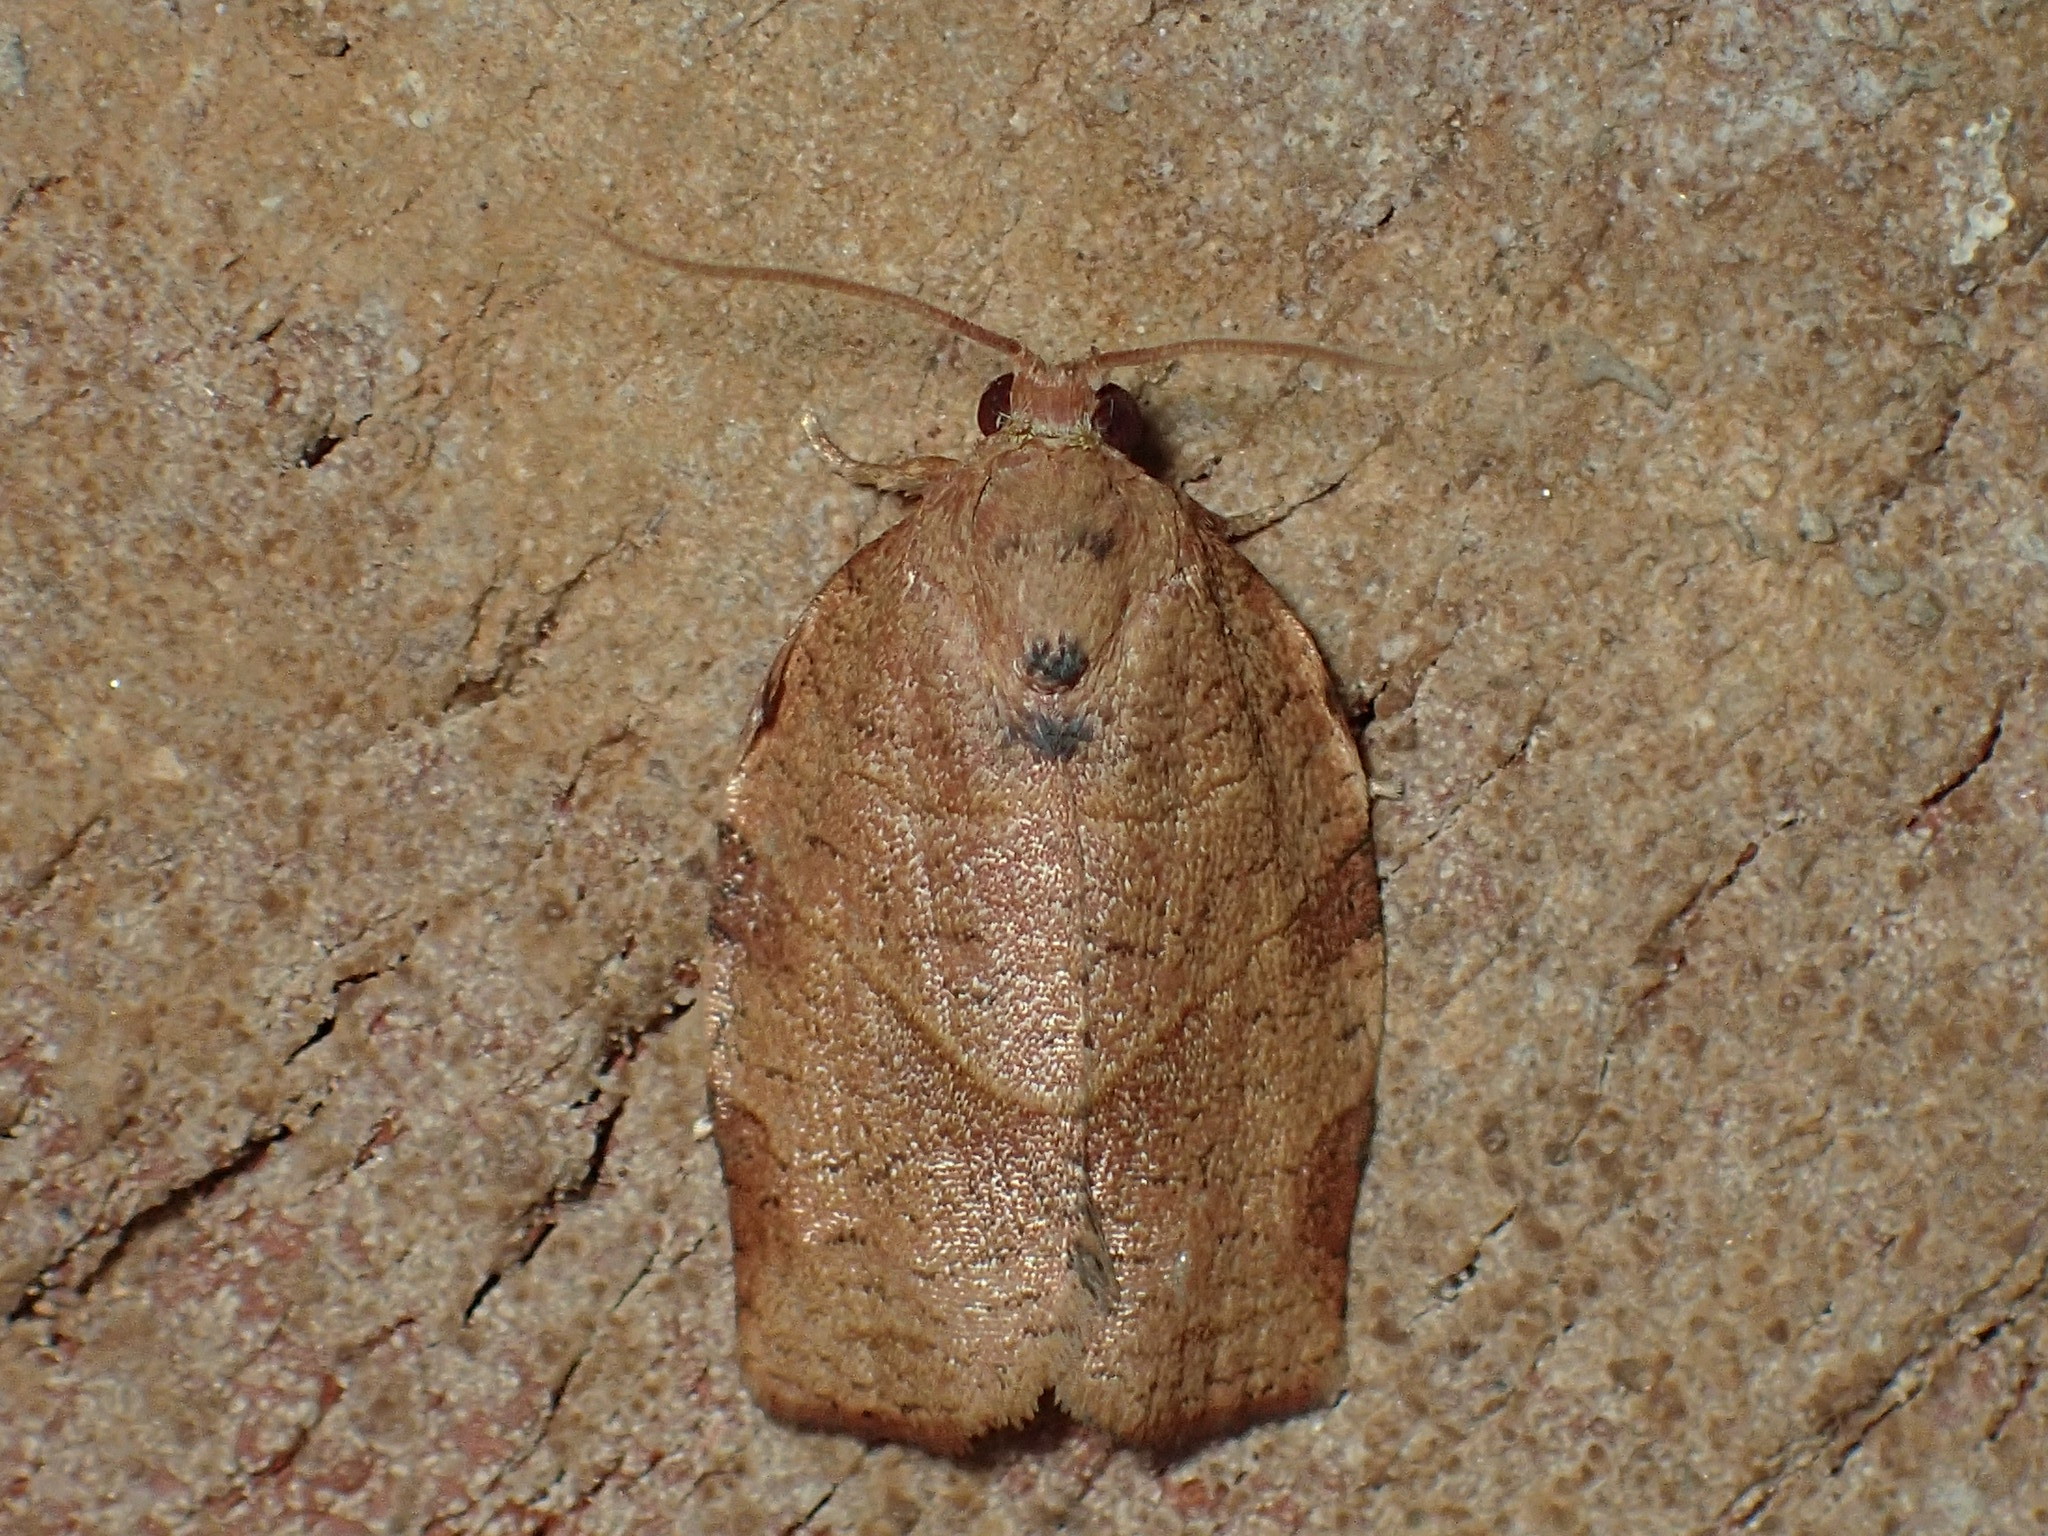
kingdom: Animalia
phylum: Arthropoda
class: Insecta
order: Lepidoptera
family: Tortricidae
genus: Choristoneura
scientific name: Choristoneura rosaceana
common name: Oblique-banded leafroller moth
